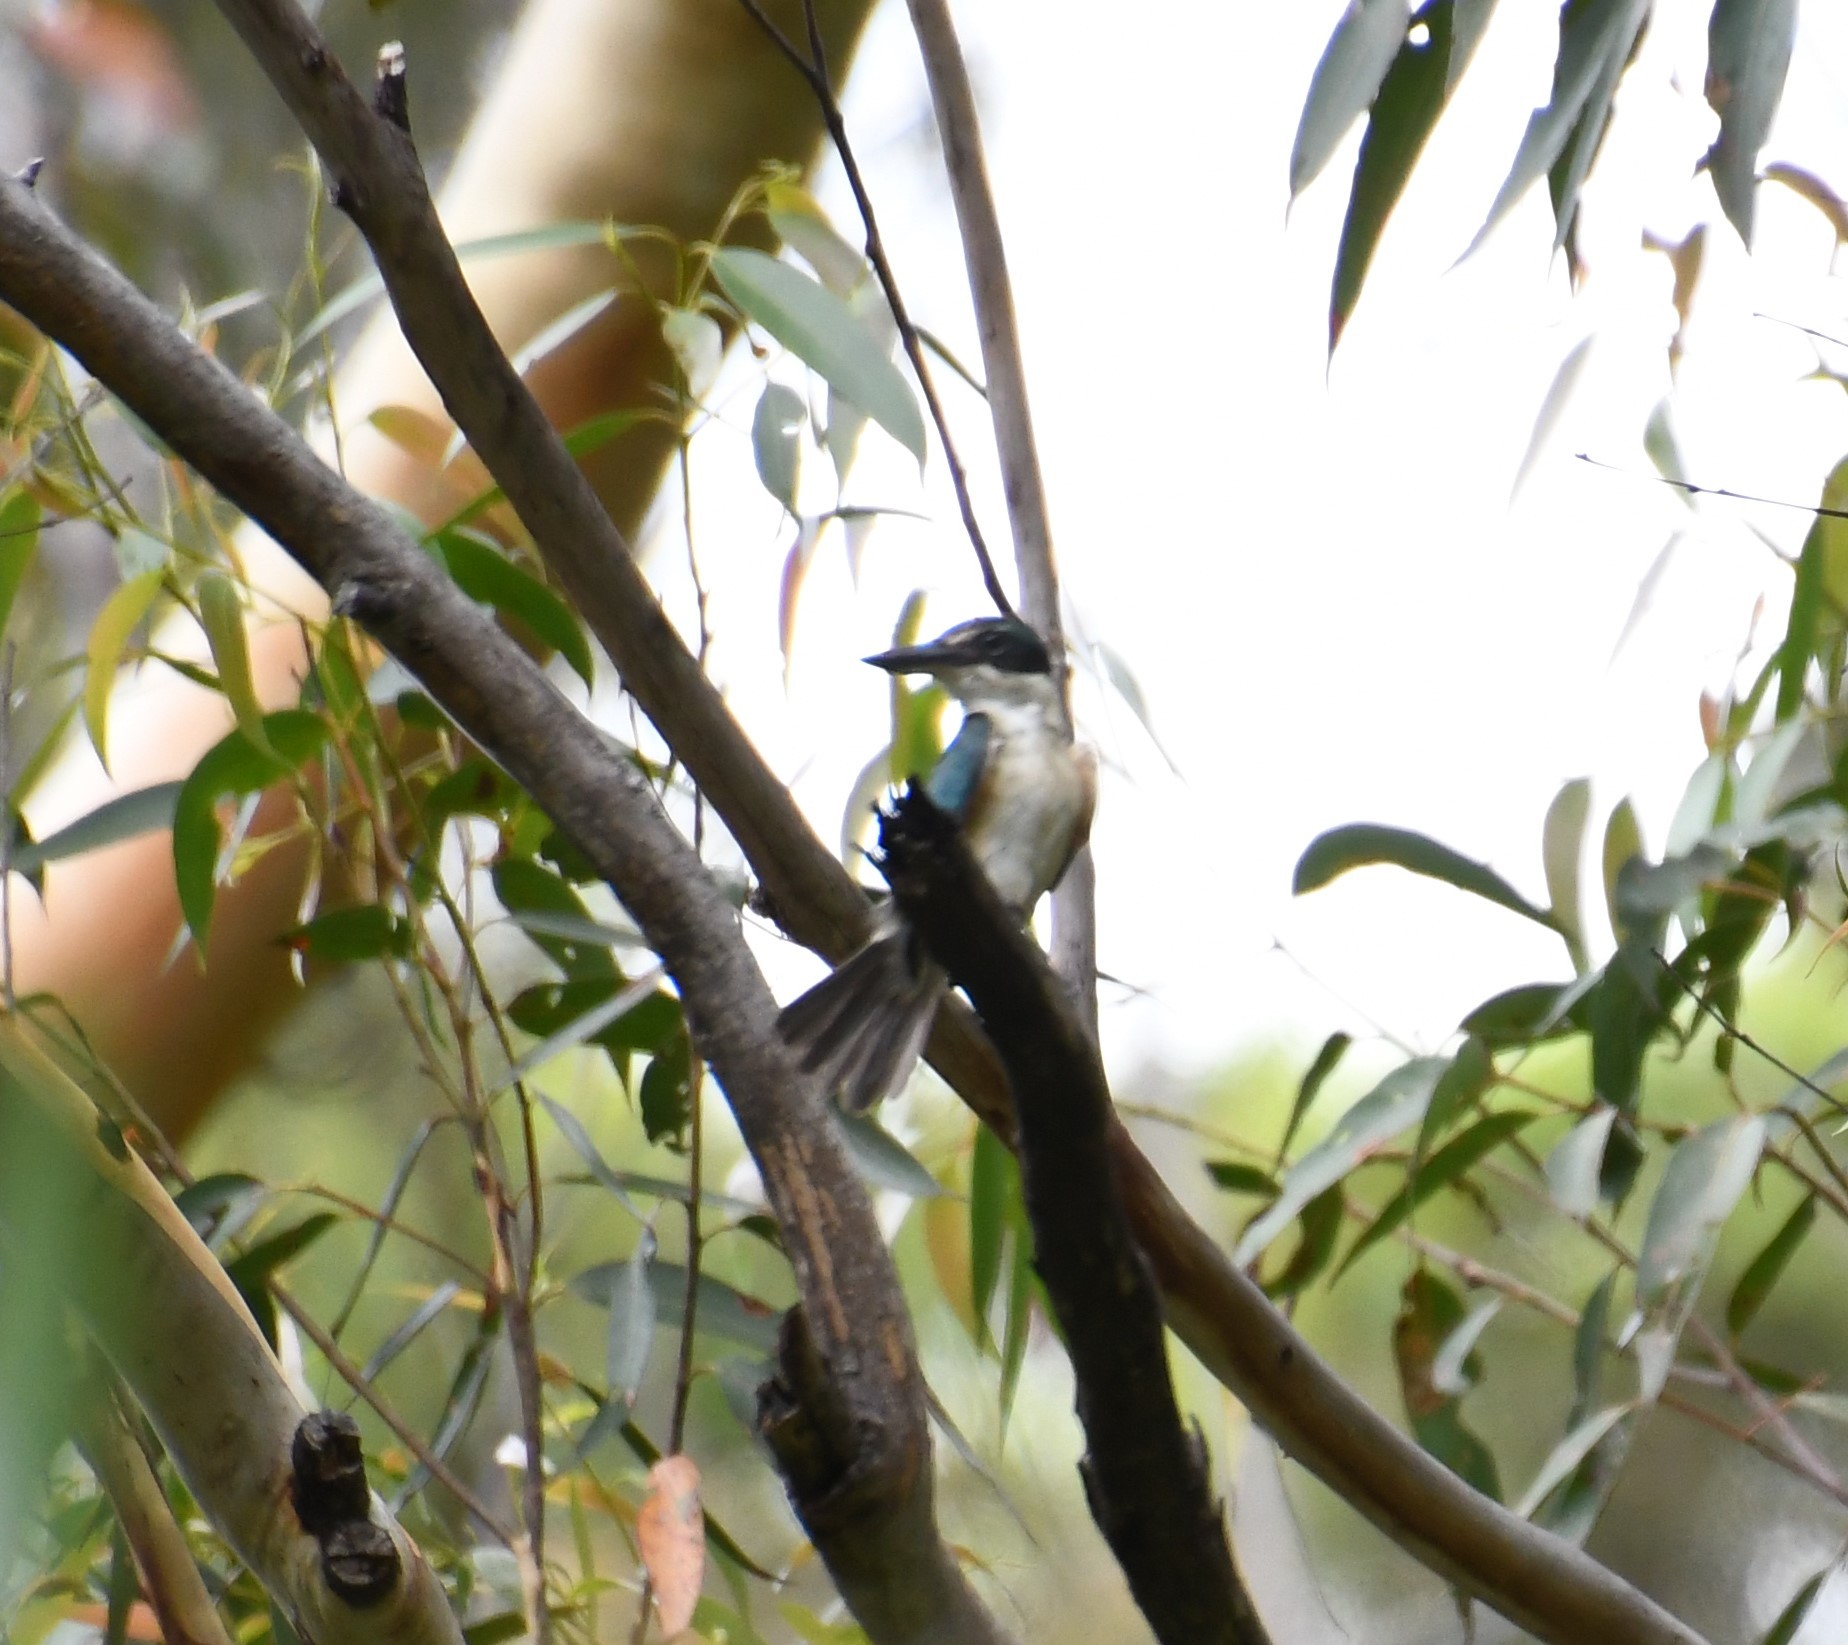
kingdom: Animalia
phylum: Chordata
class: Aves
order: Coraciiformes
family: Alcedinidae
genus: Todiramphus
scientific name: Todiramphus sanctus
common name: Sacred kingfisher
